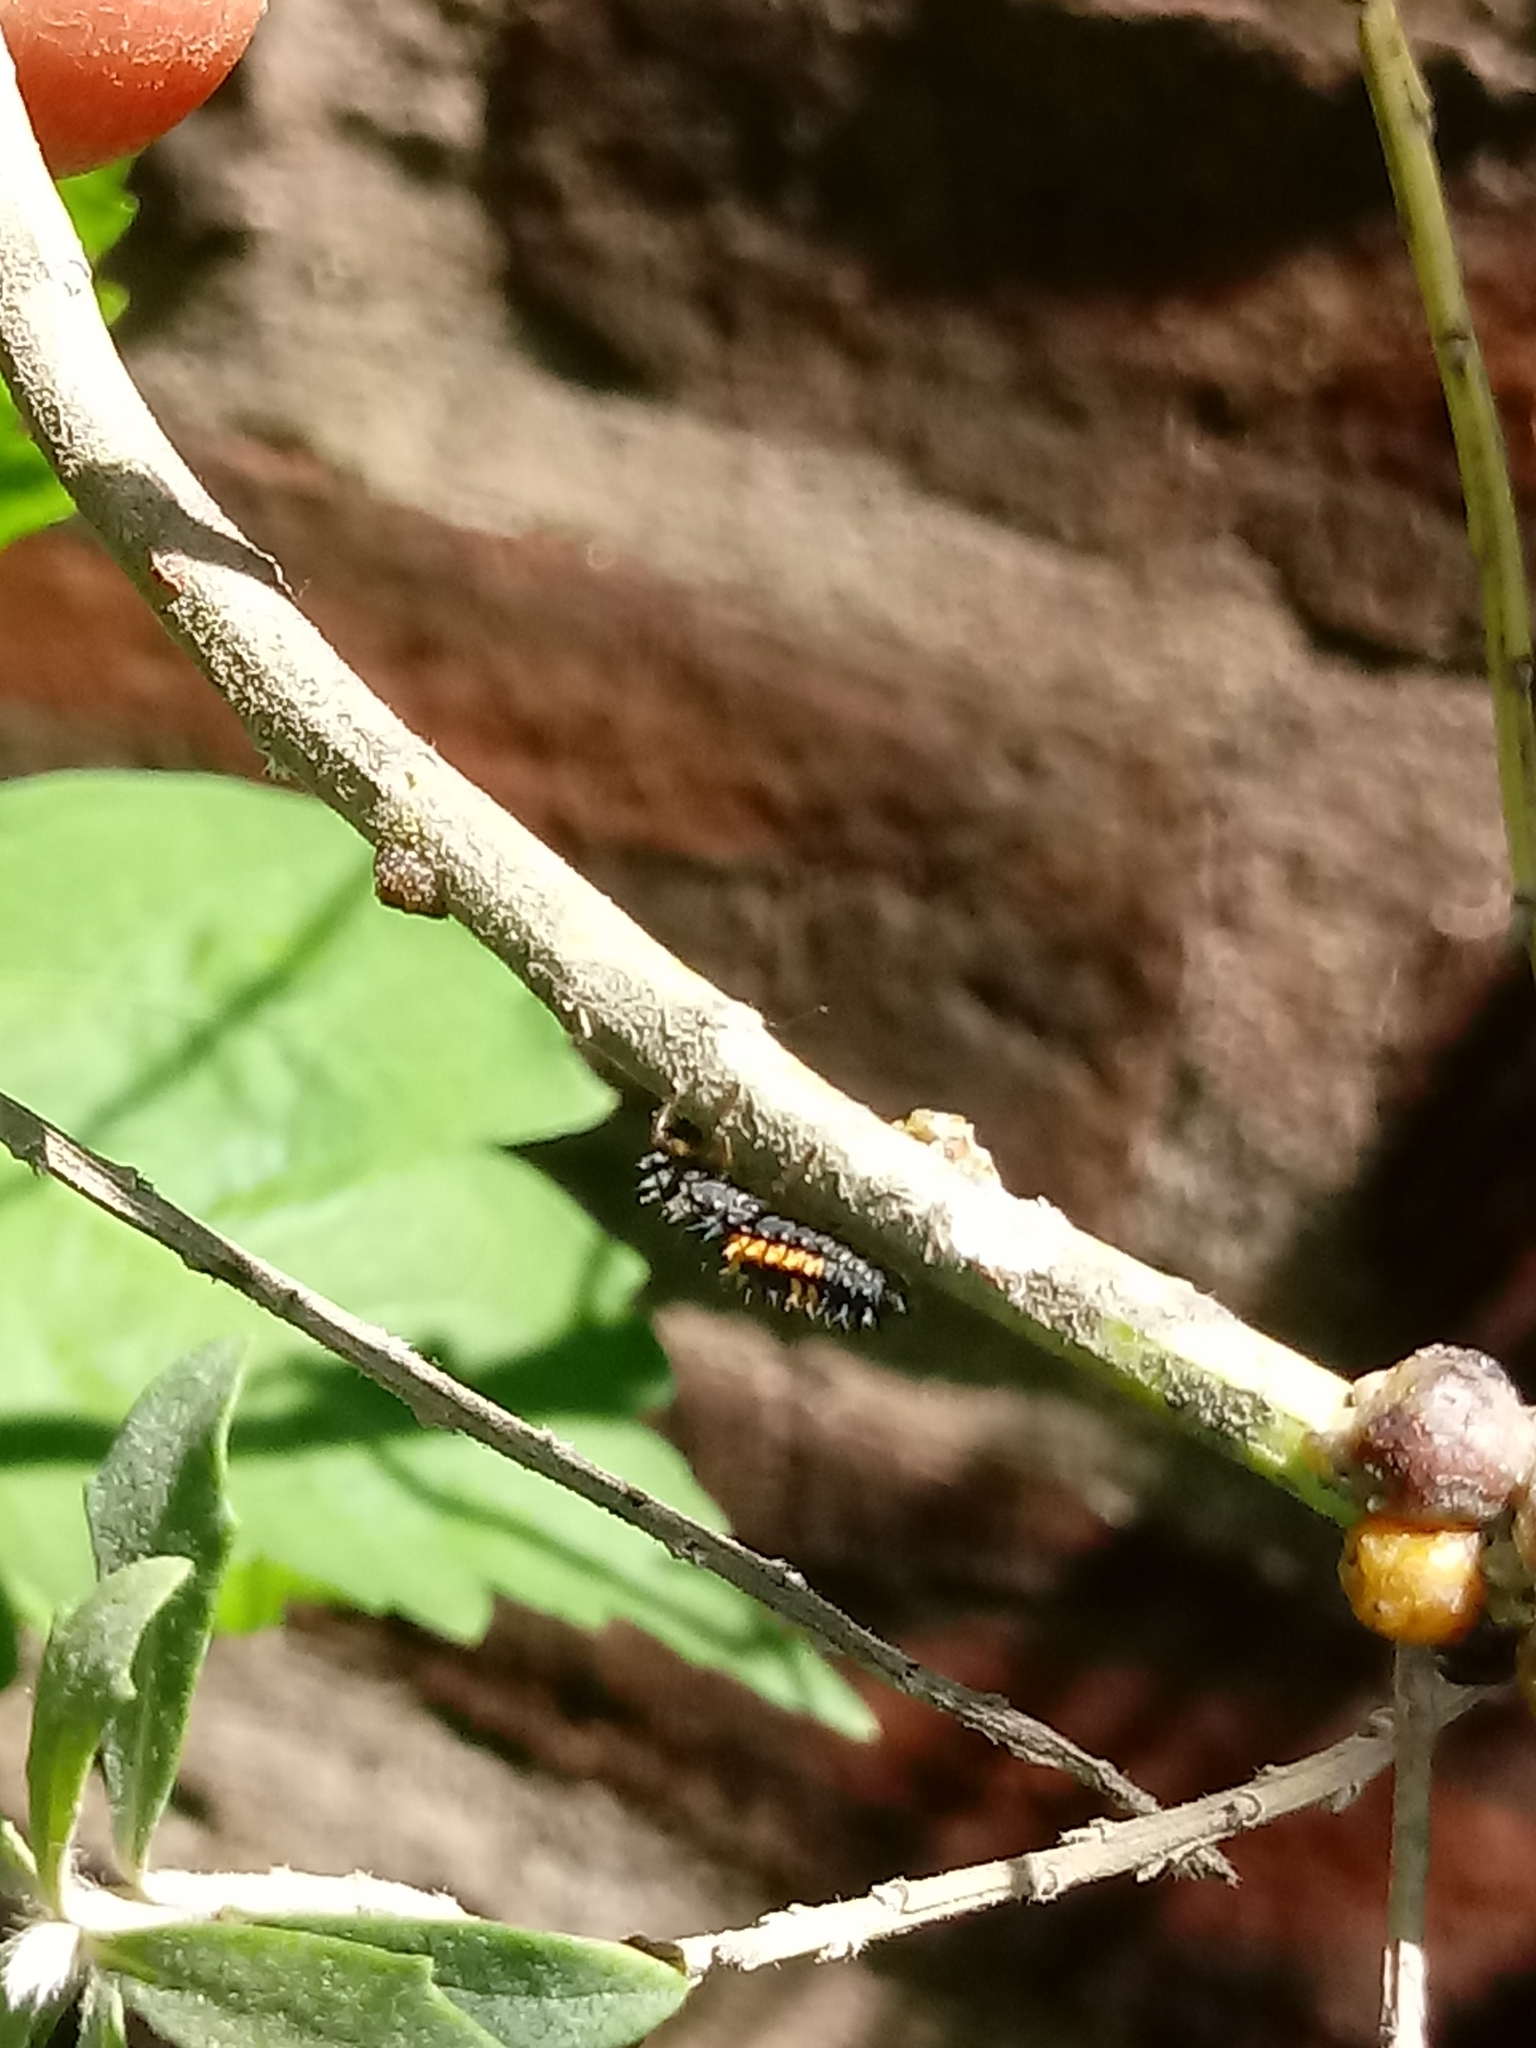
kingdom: Animalia
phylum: Arthropoda
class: Insecta
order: Coleoptera
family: Coccinellidae
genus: Harmonia
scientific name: Harmonia axyridis
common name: Harlequin ladybird
